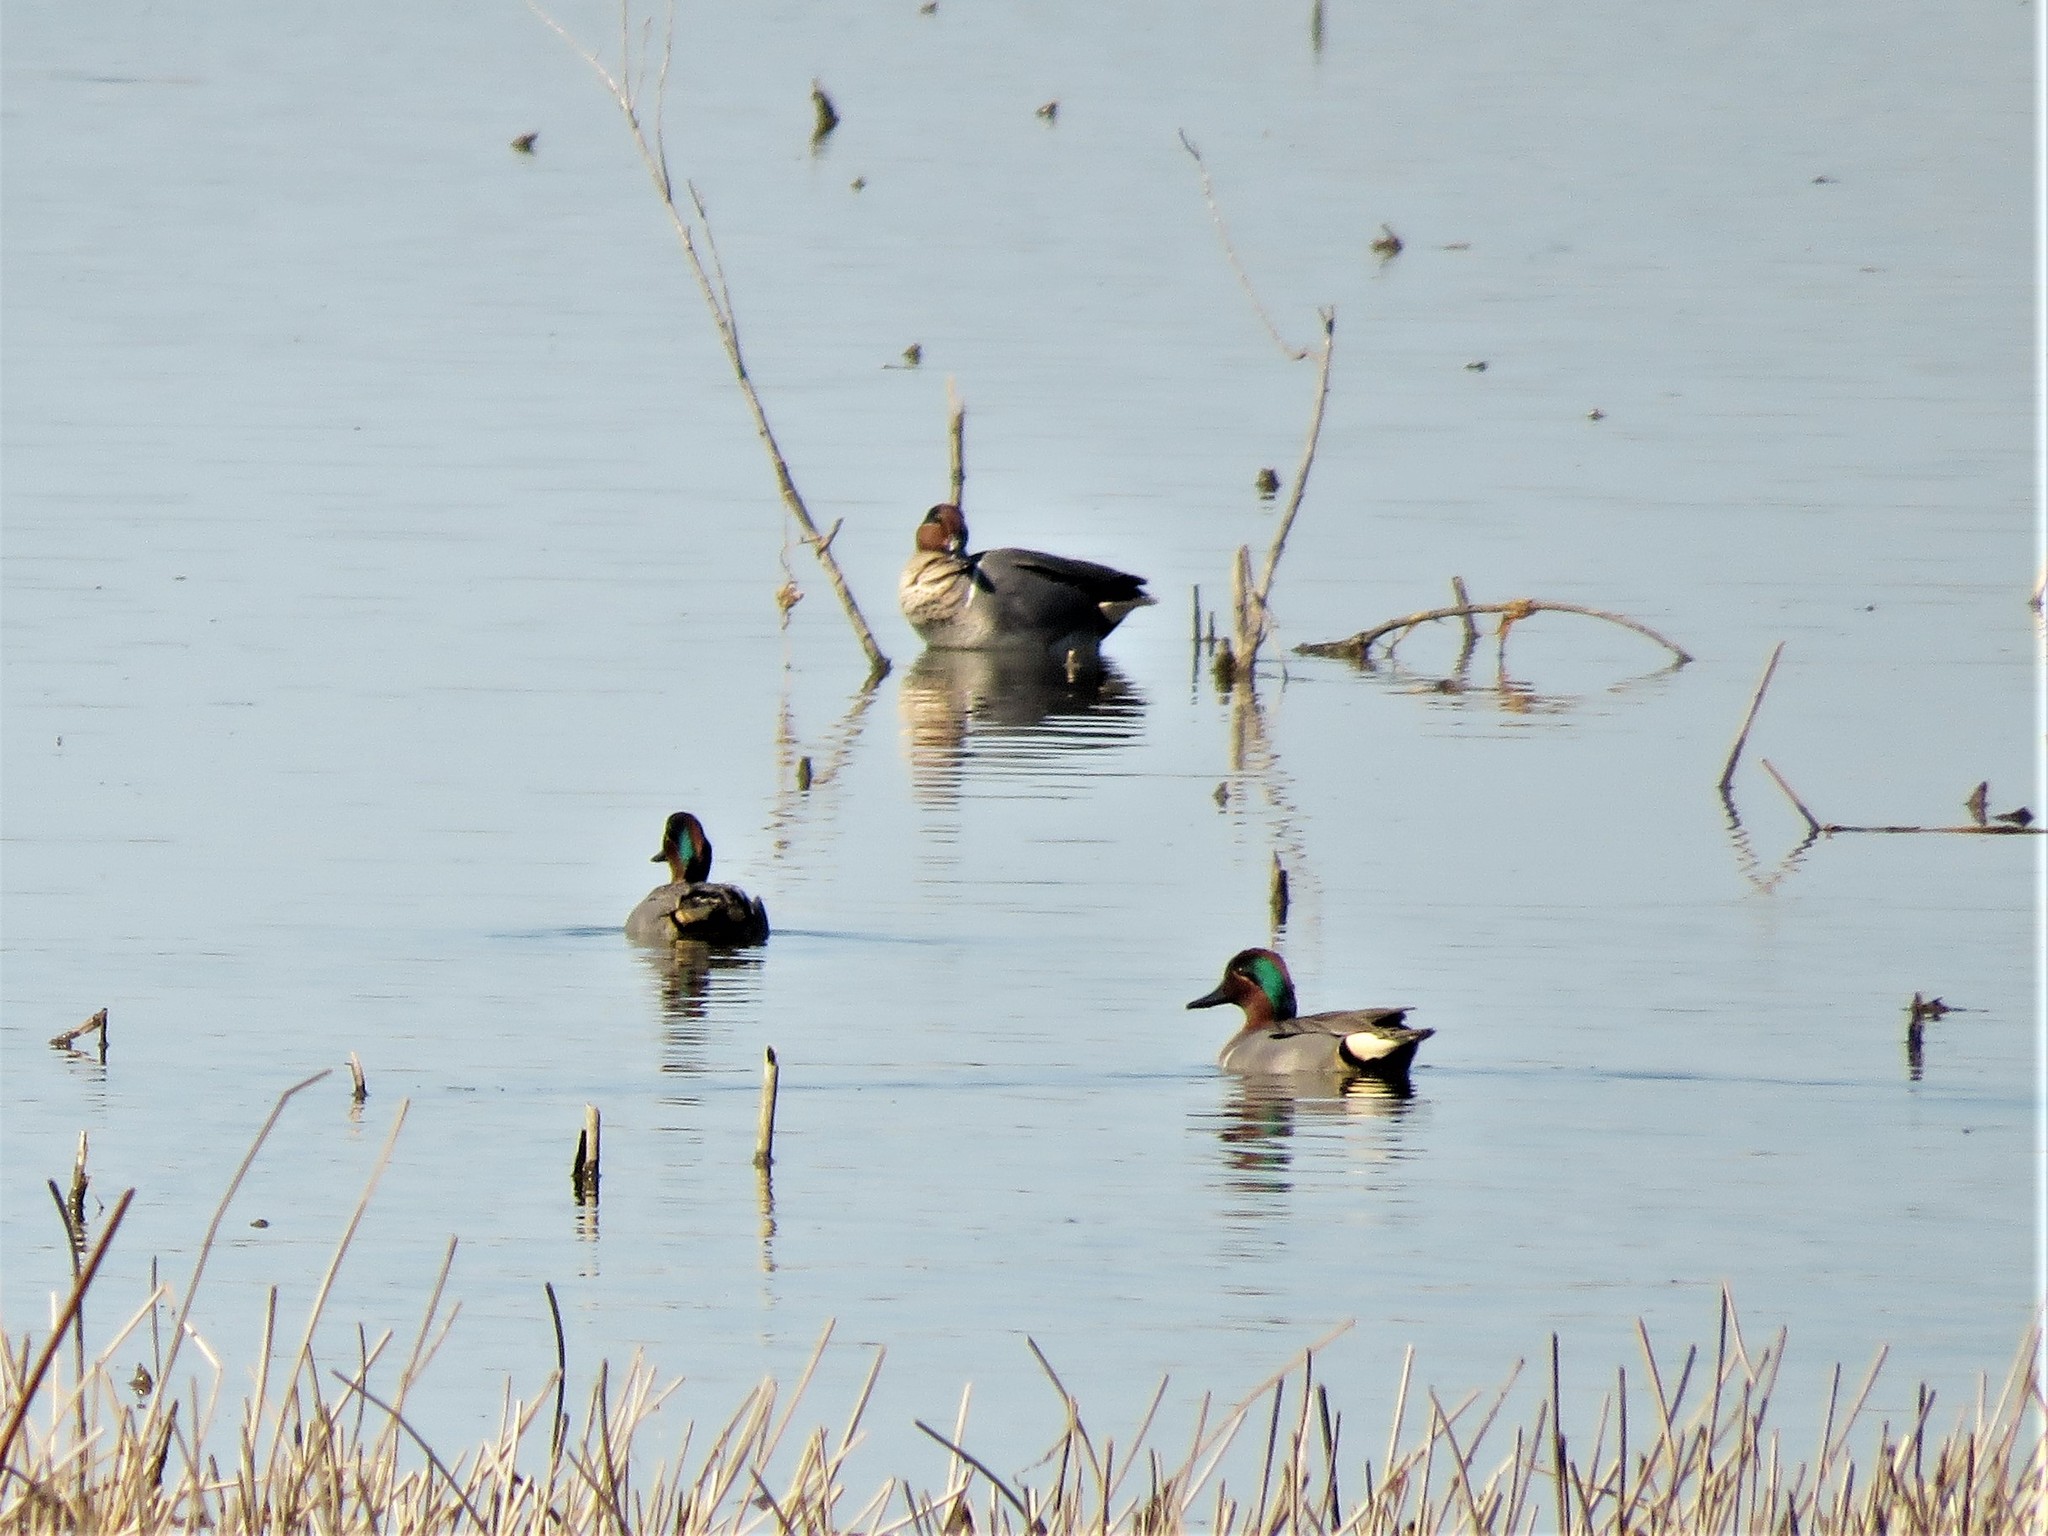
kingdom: Animalia
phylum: Chordata
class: Aves
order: Anseriformes
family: Anatidae
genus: Anas
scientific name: Anas crecca
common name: Eurasian teal
